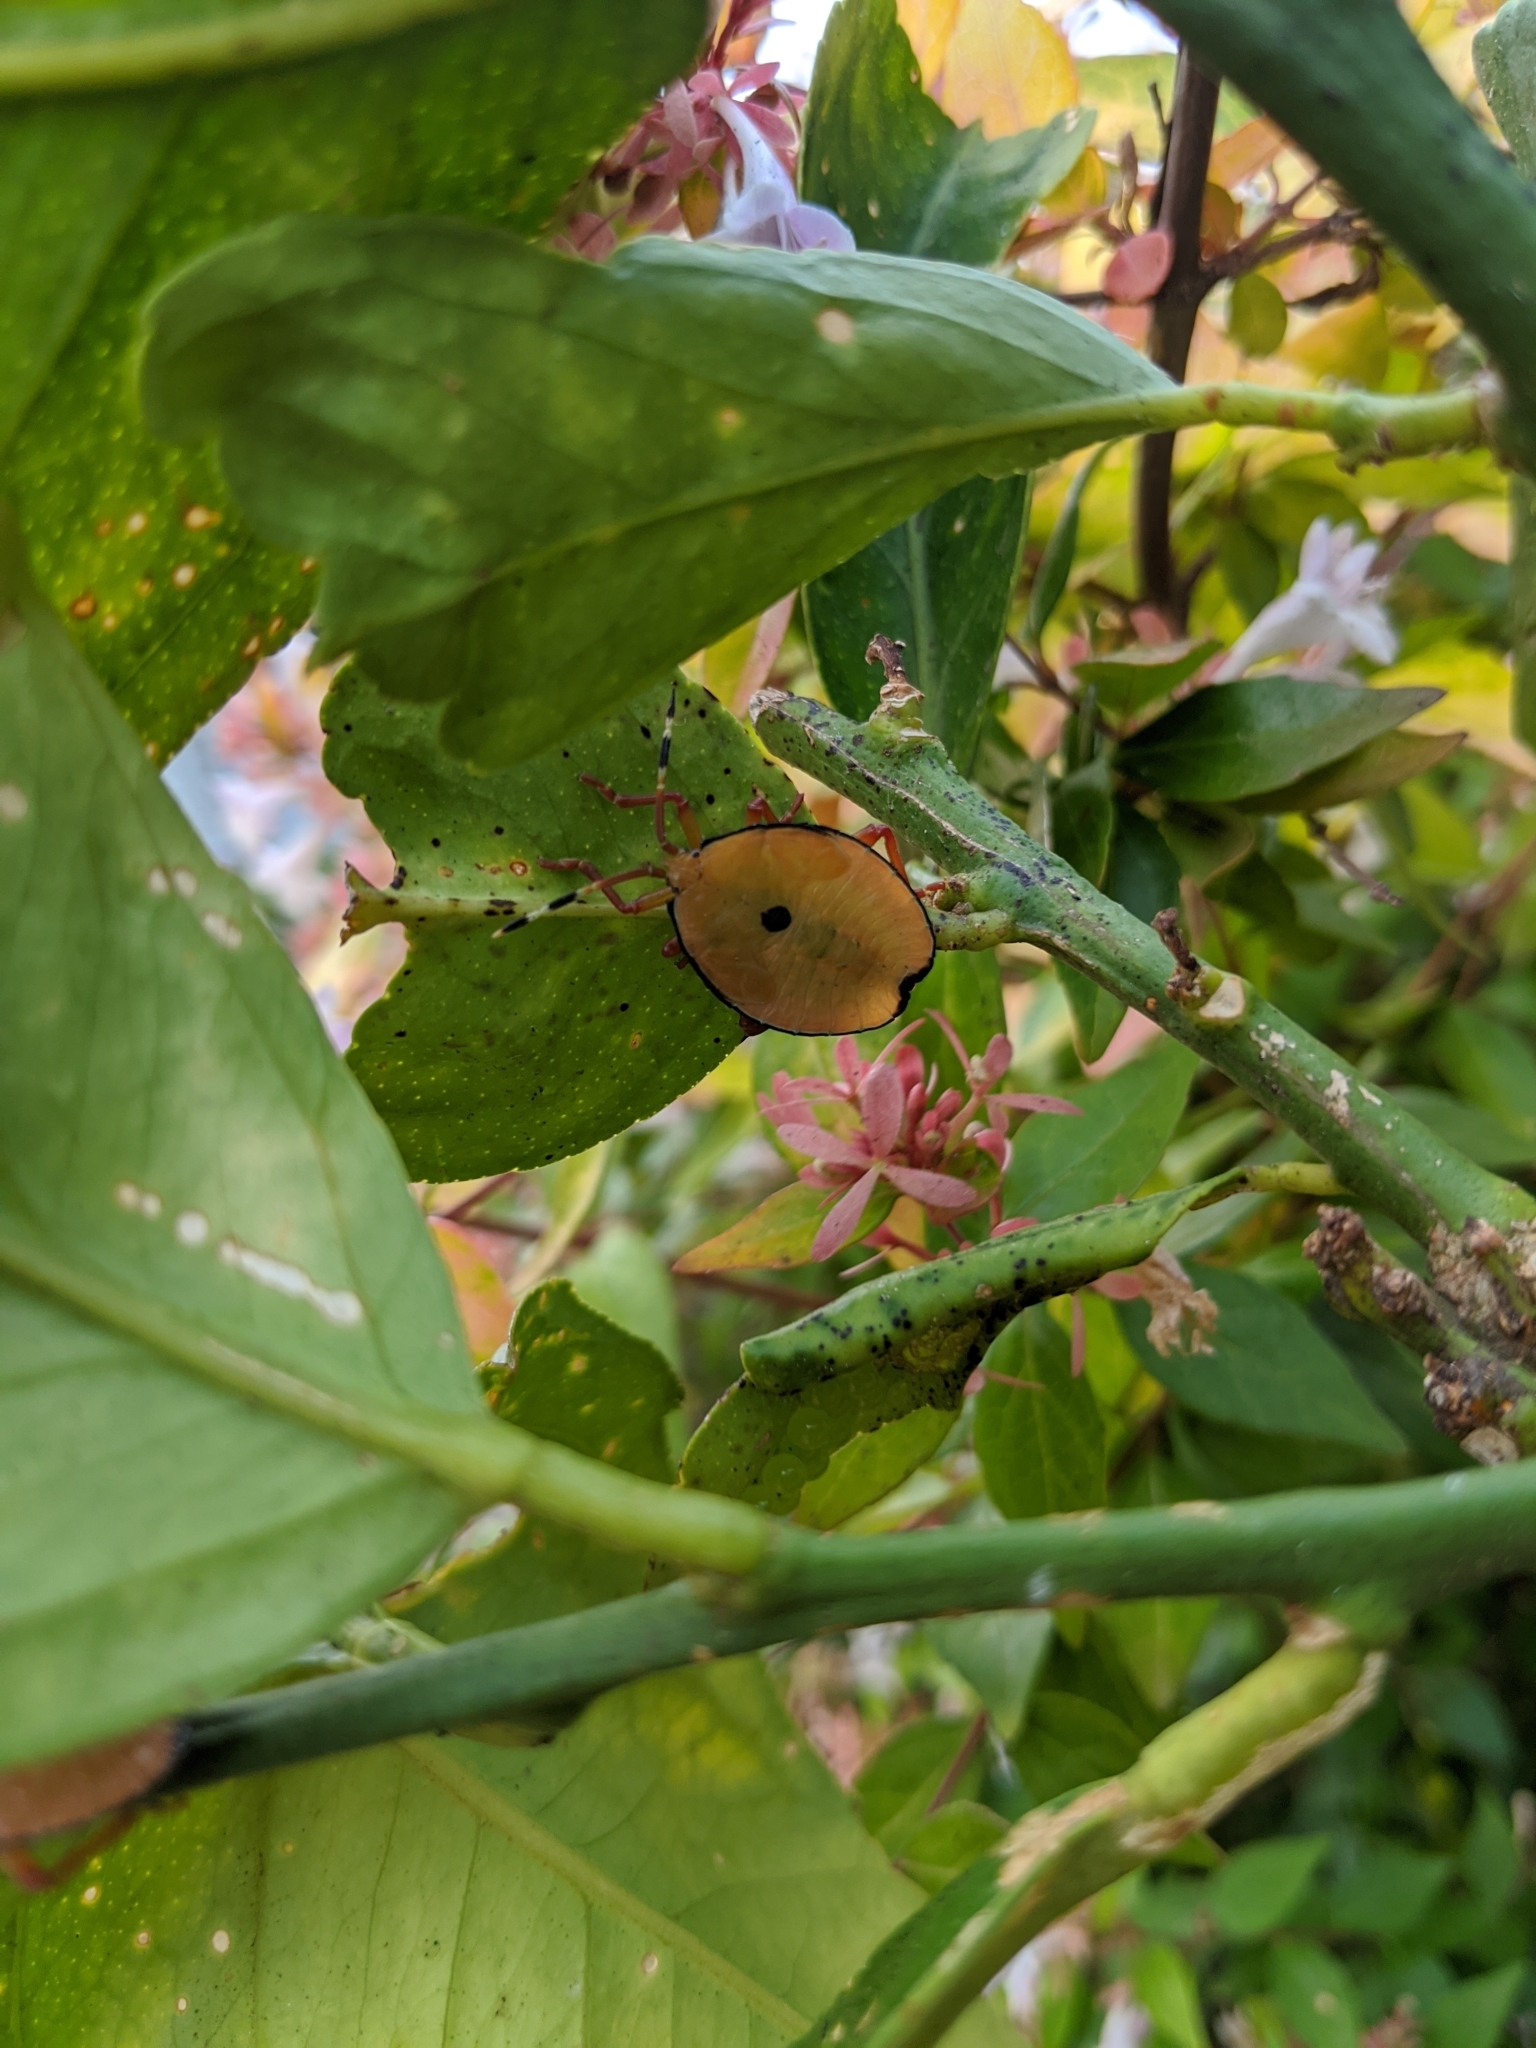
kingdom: Animalia
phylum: Arthropoda
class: Insecta
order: Hemiptera
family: Tessaratomidae
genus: Musgraveia
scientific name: Musgraveia sulciventris
